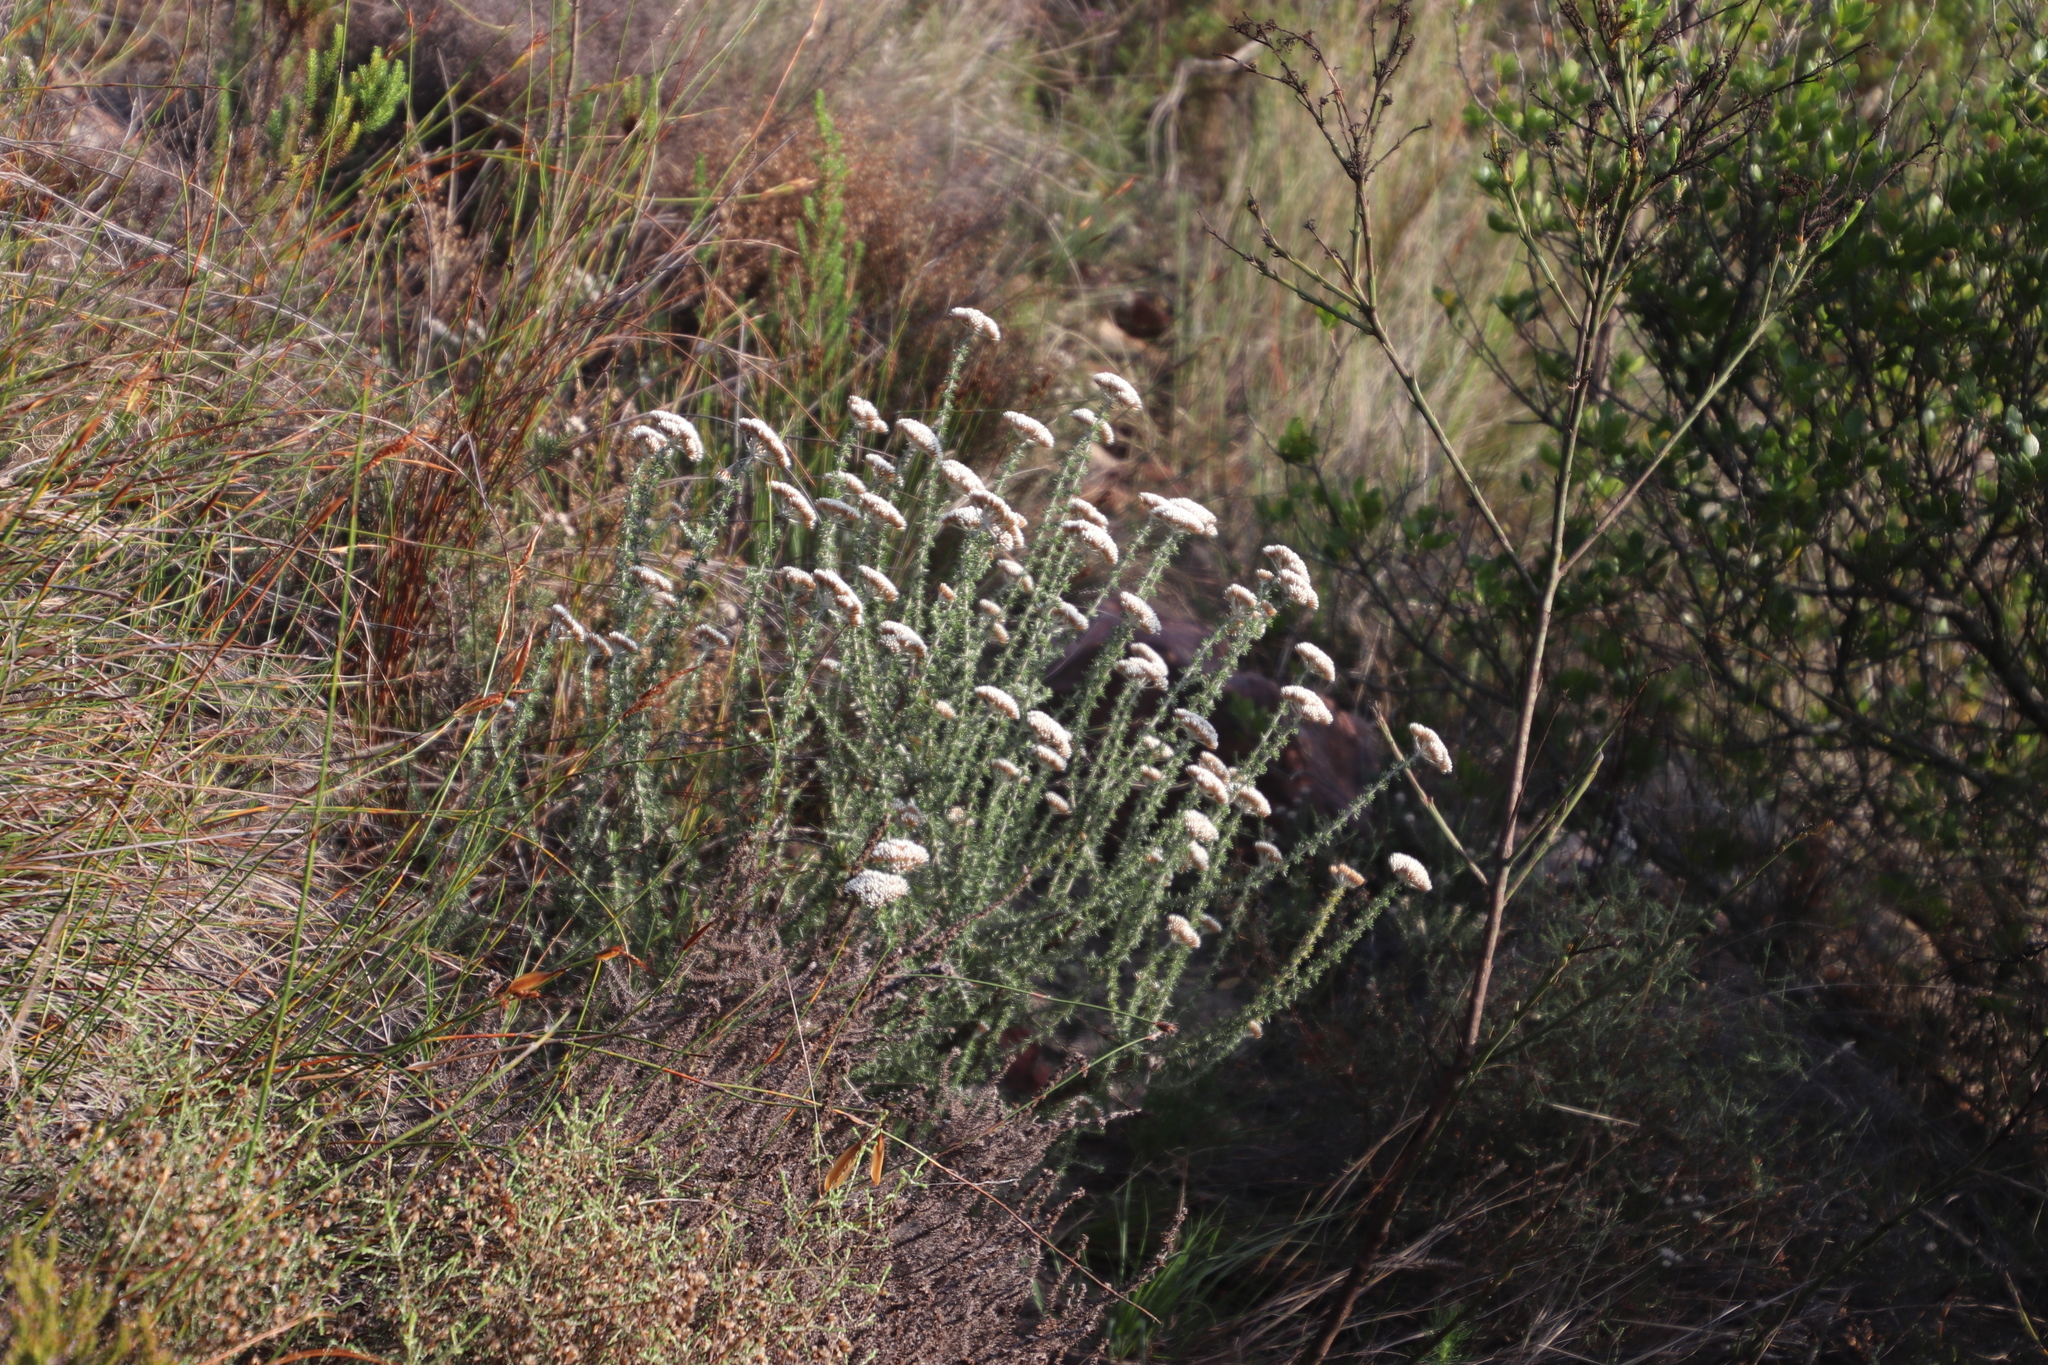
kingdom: Plantae
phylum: Tracheophyta
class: Magnoliopsida
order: Asterales
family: Asteraceae
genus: Metalasia
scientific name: Metalasia densa
